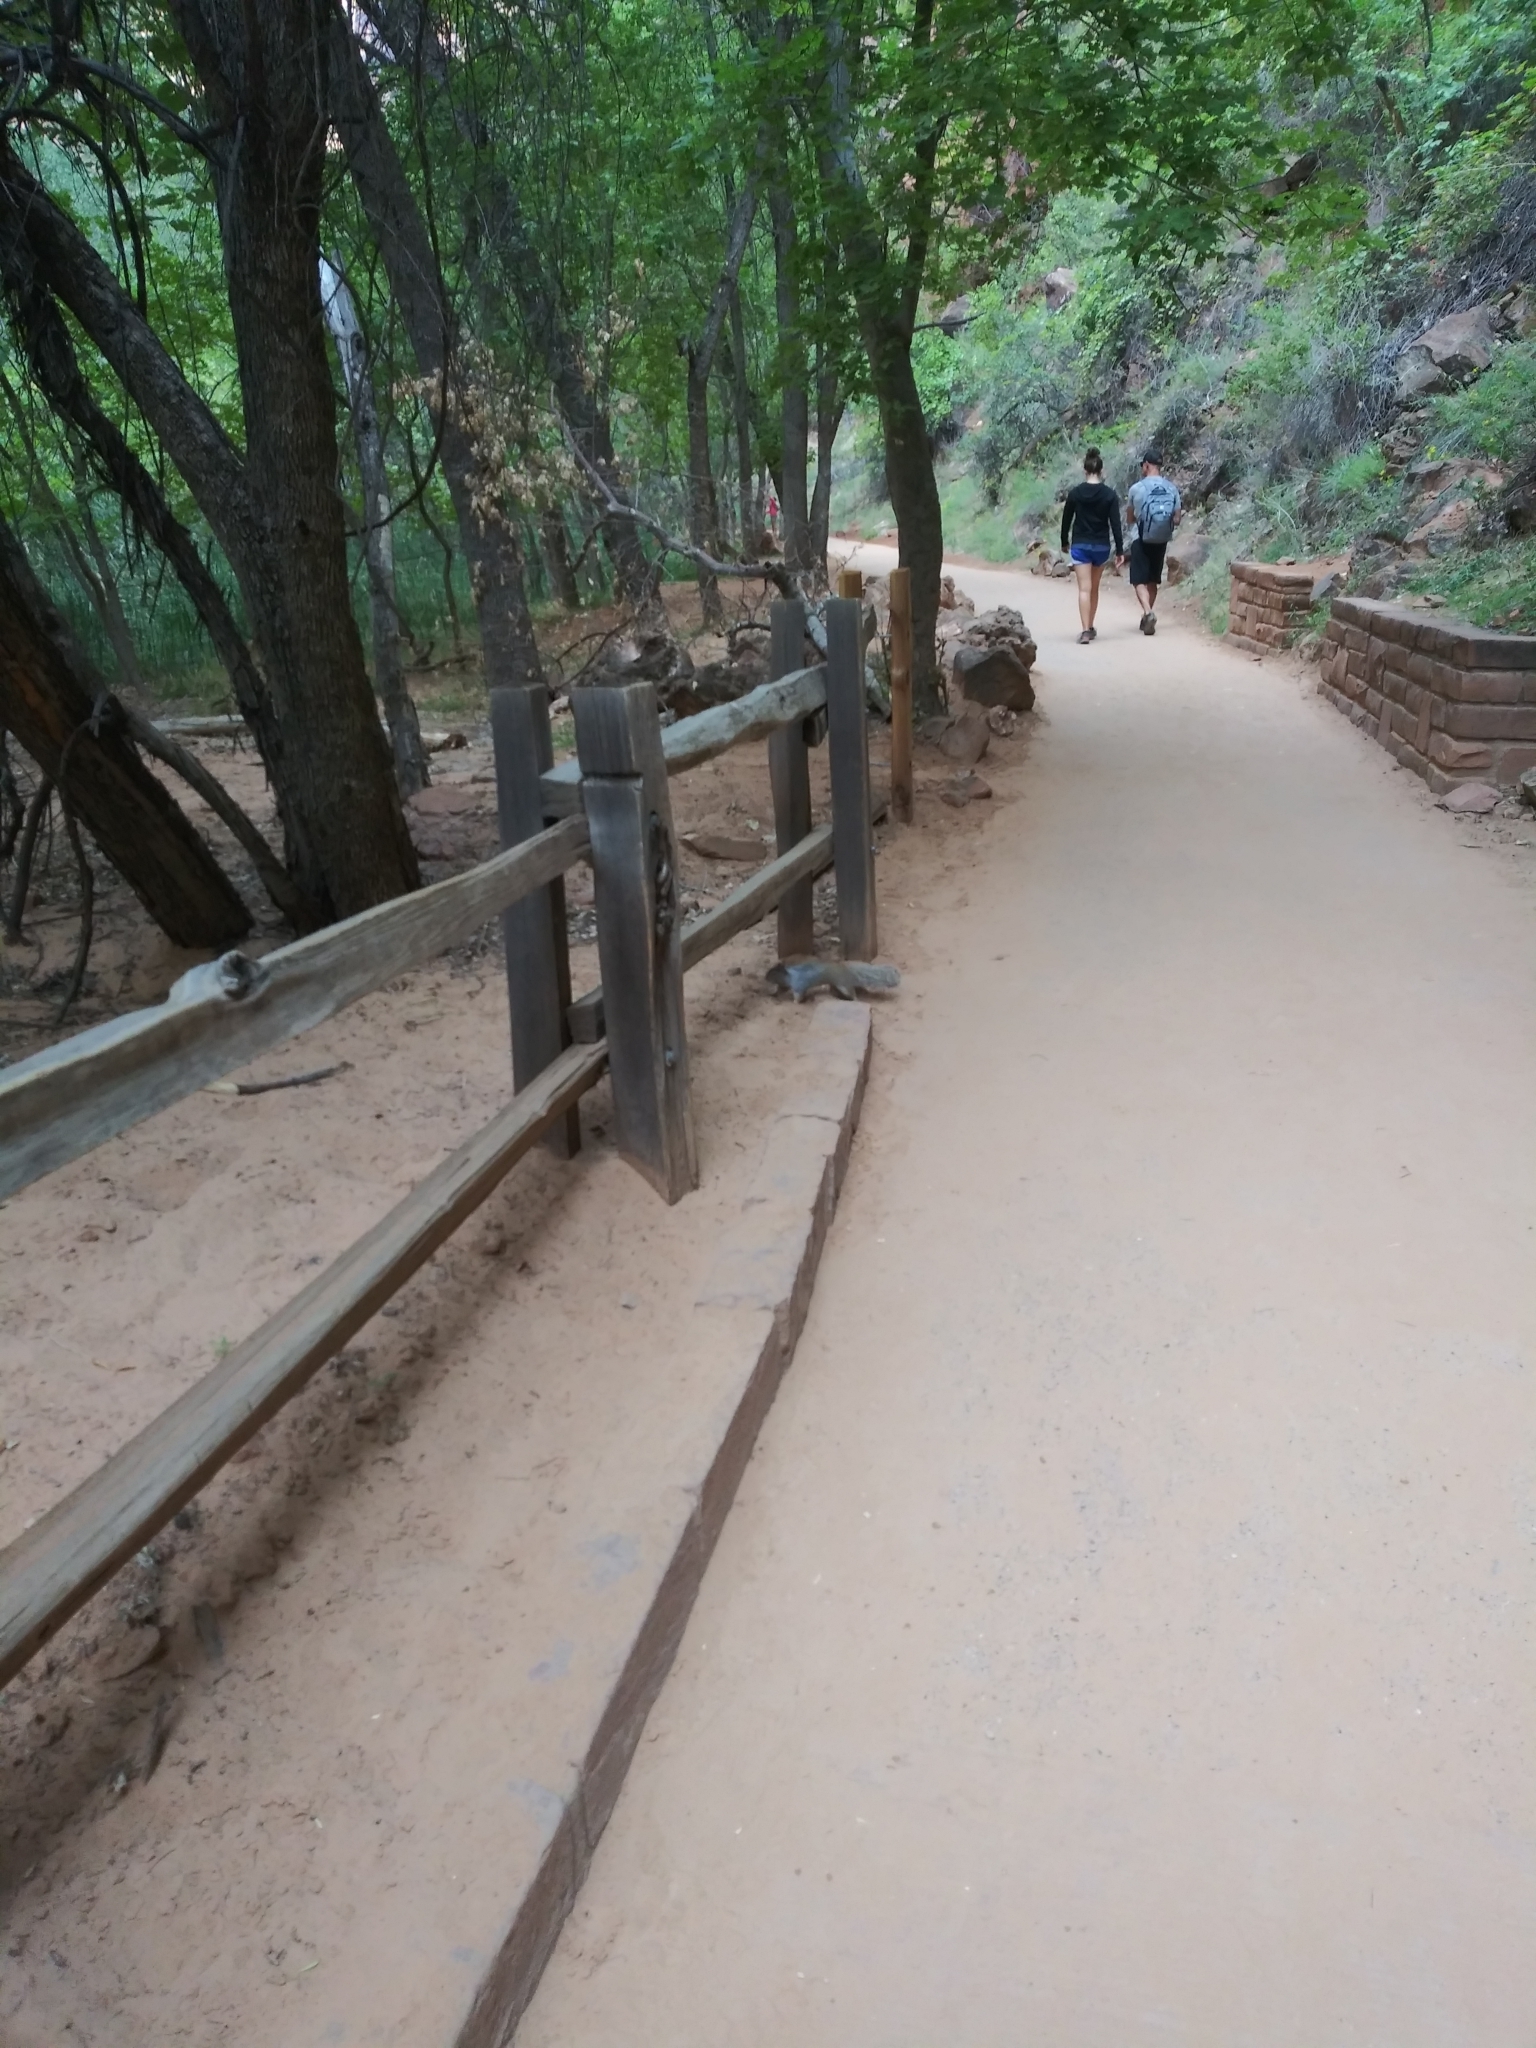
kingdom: Animalia
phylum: Chordata
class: Mammalia
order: Rodentia
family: Sciuridae
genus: Otospermophilus
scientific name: Otospermophilus variegatus
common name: Rock squirrel
